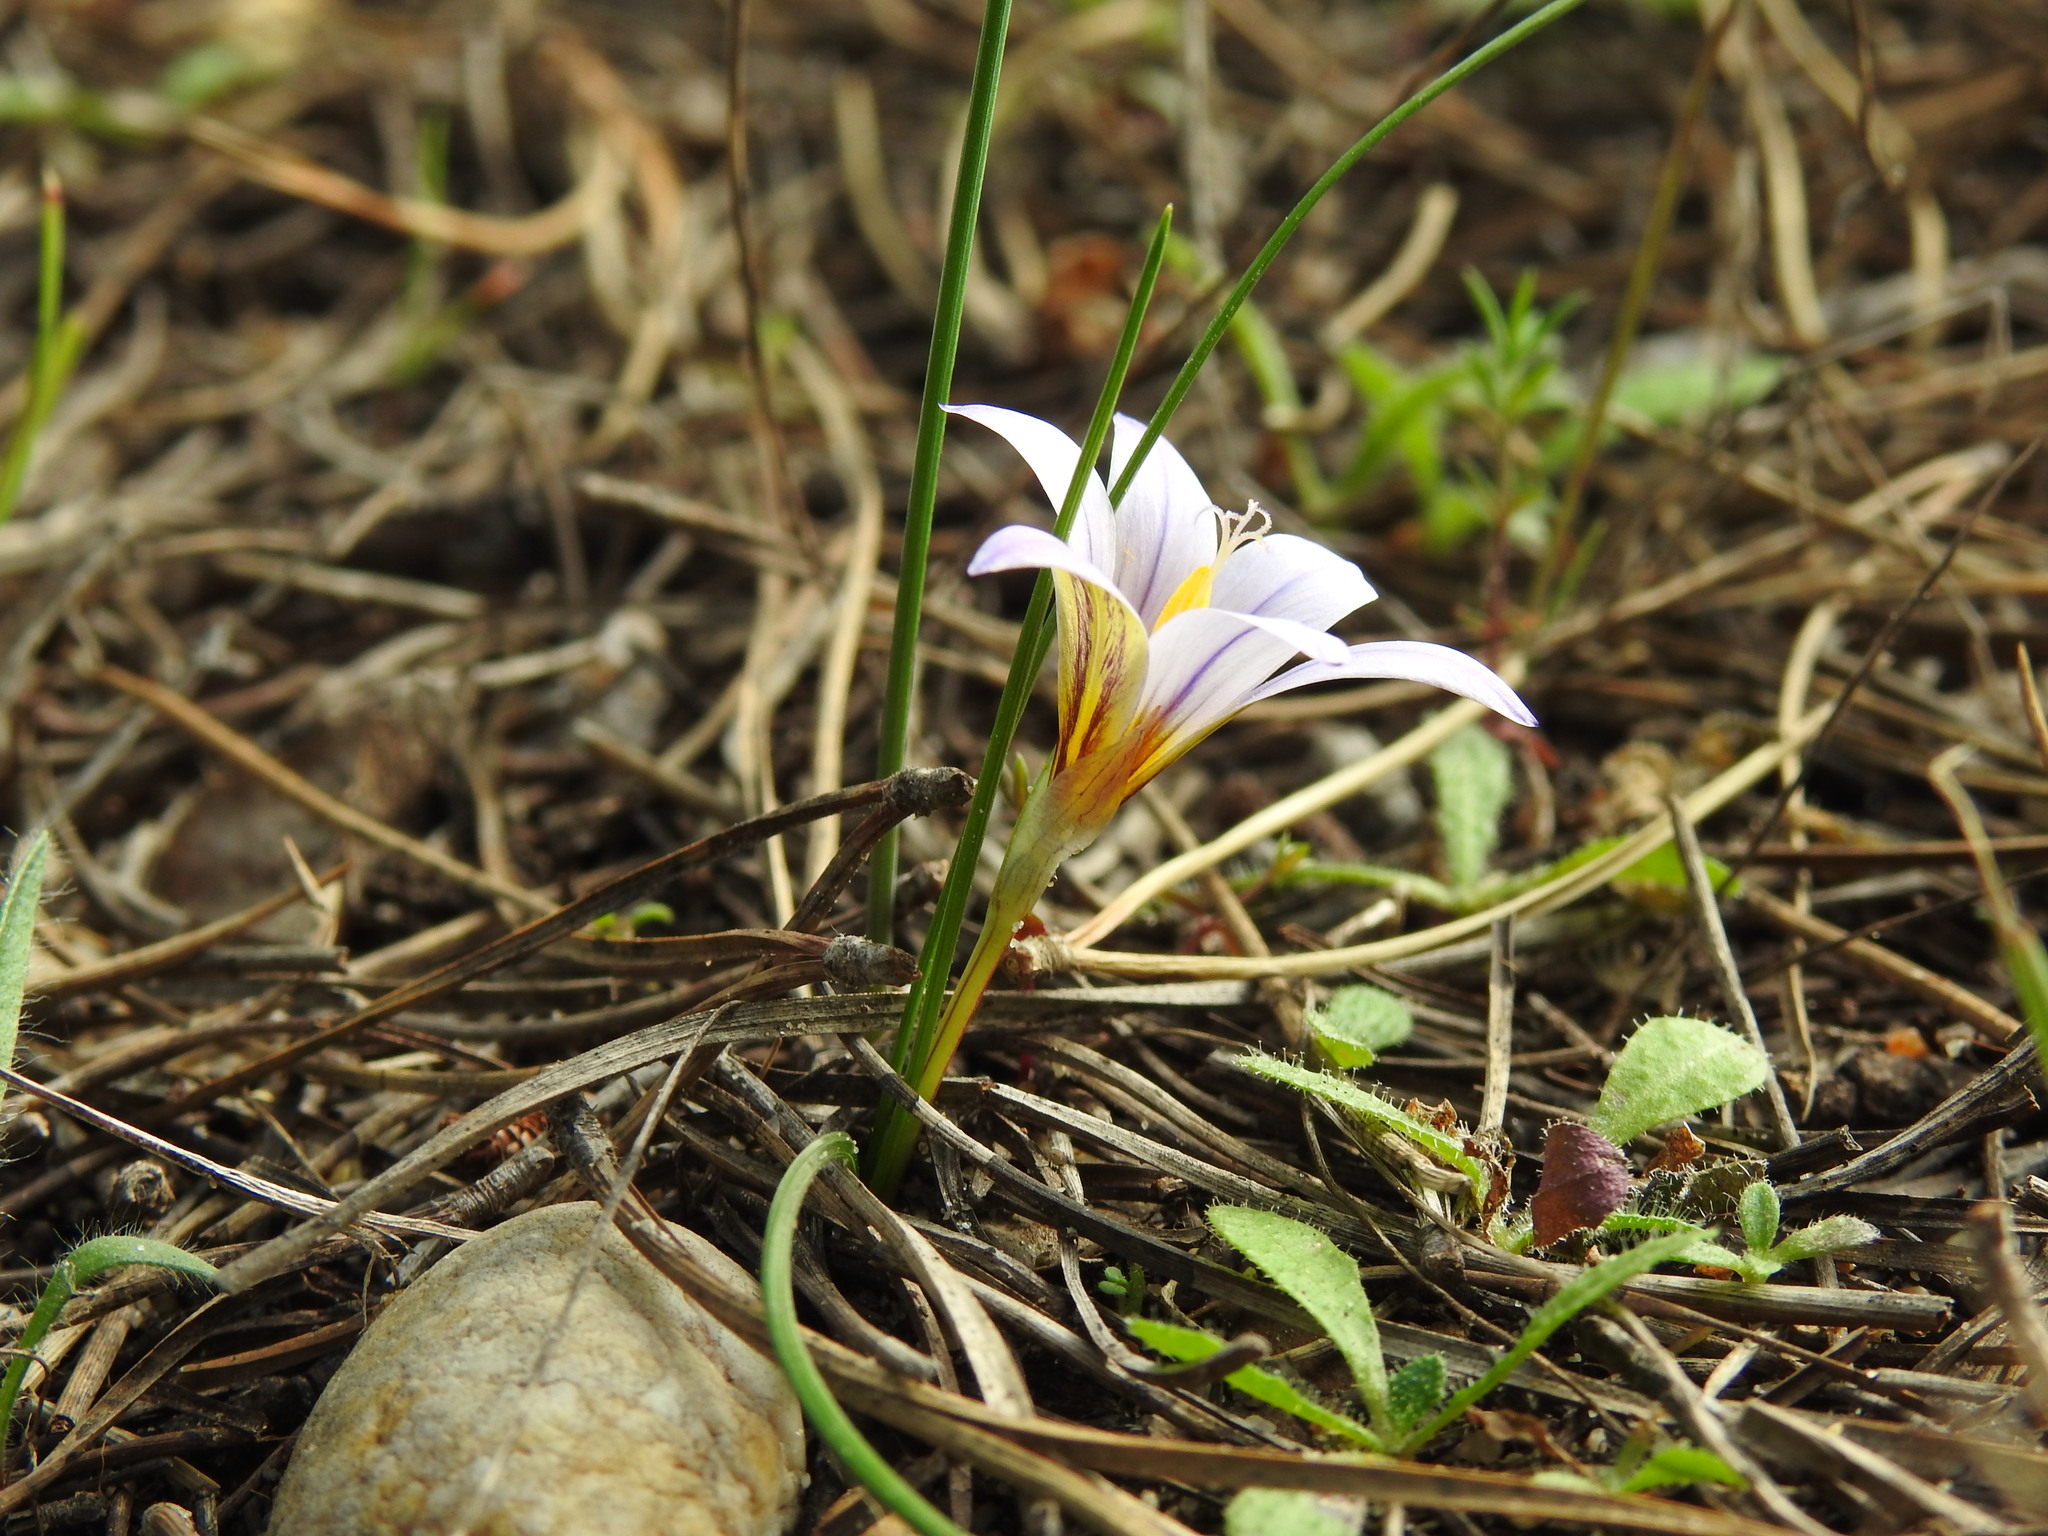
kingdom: Plantae
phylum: Tracheophyta
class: Liliopsida
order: Asparagales
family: Iridaceae
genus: Romulea
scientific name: Romulea bulbocodium
